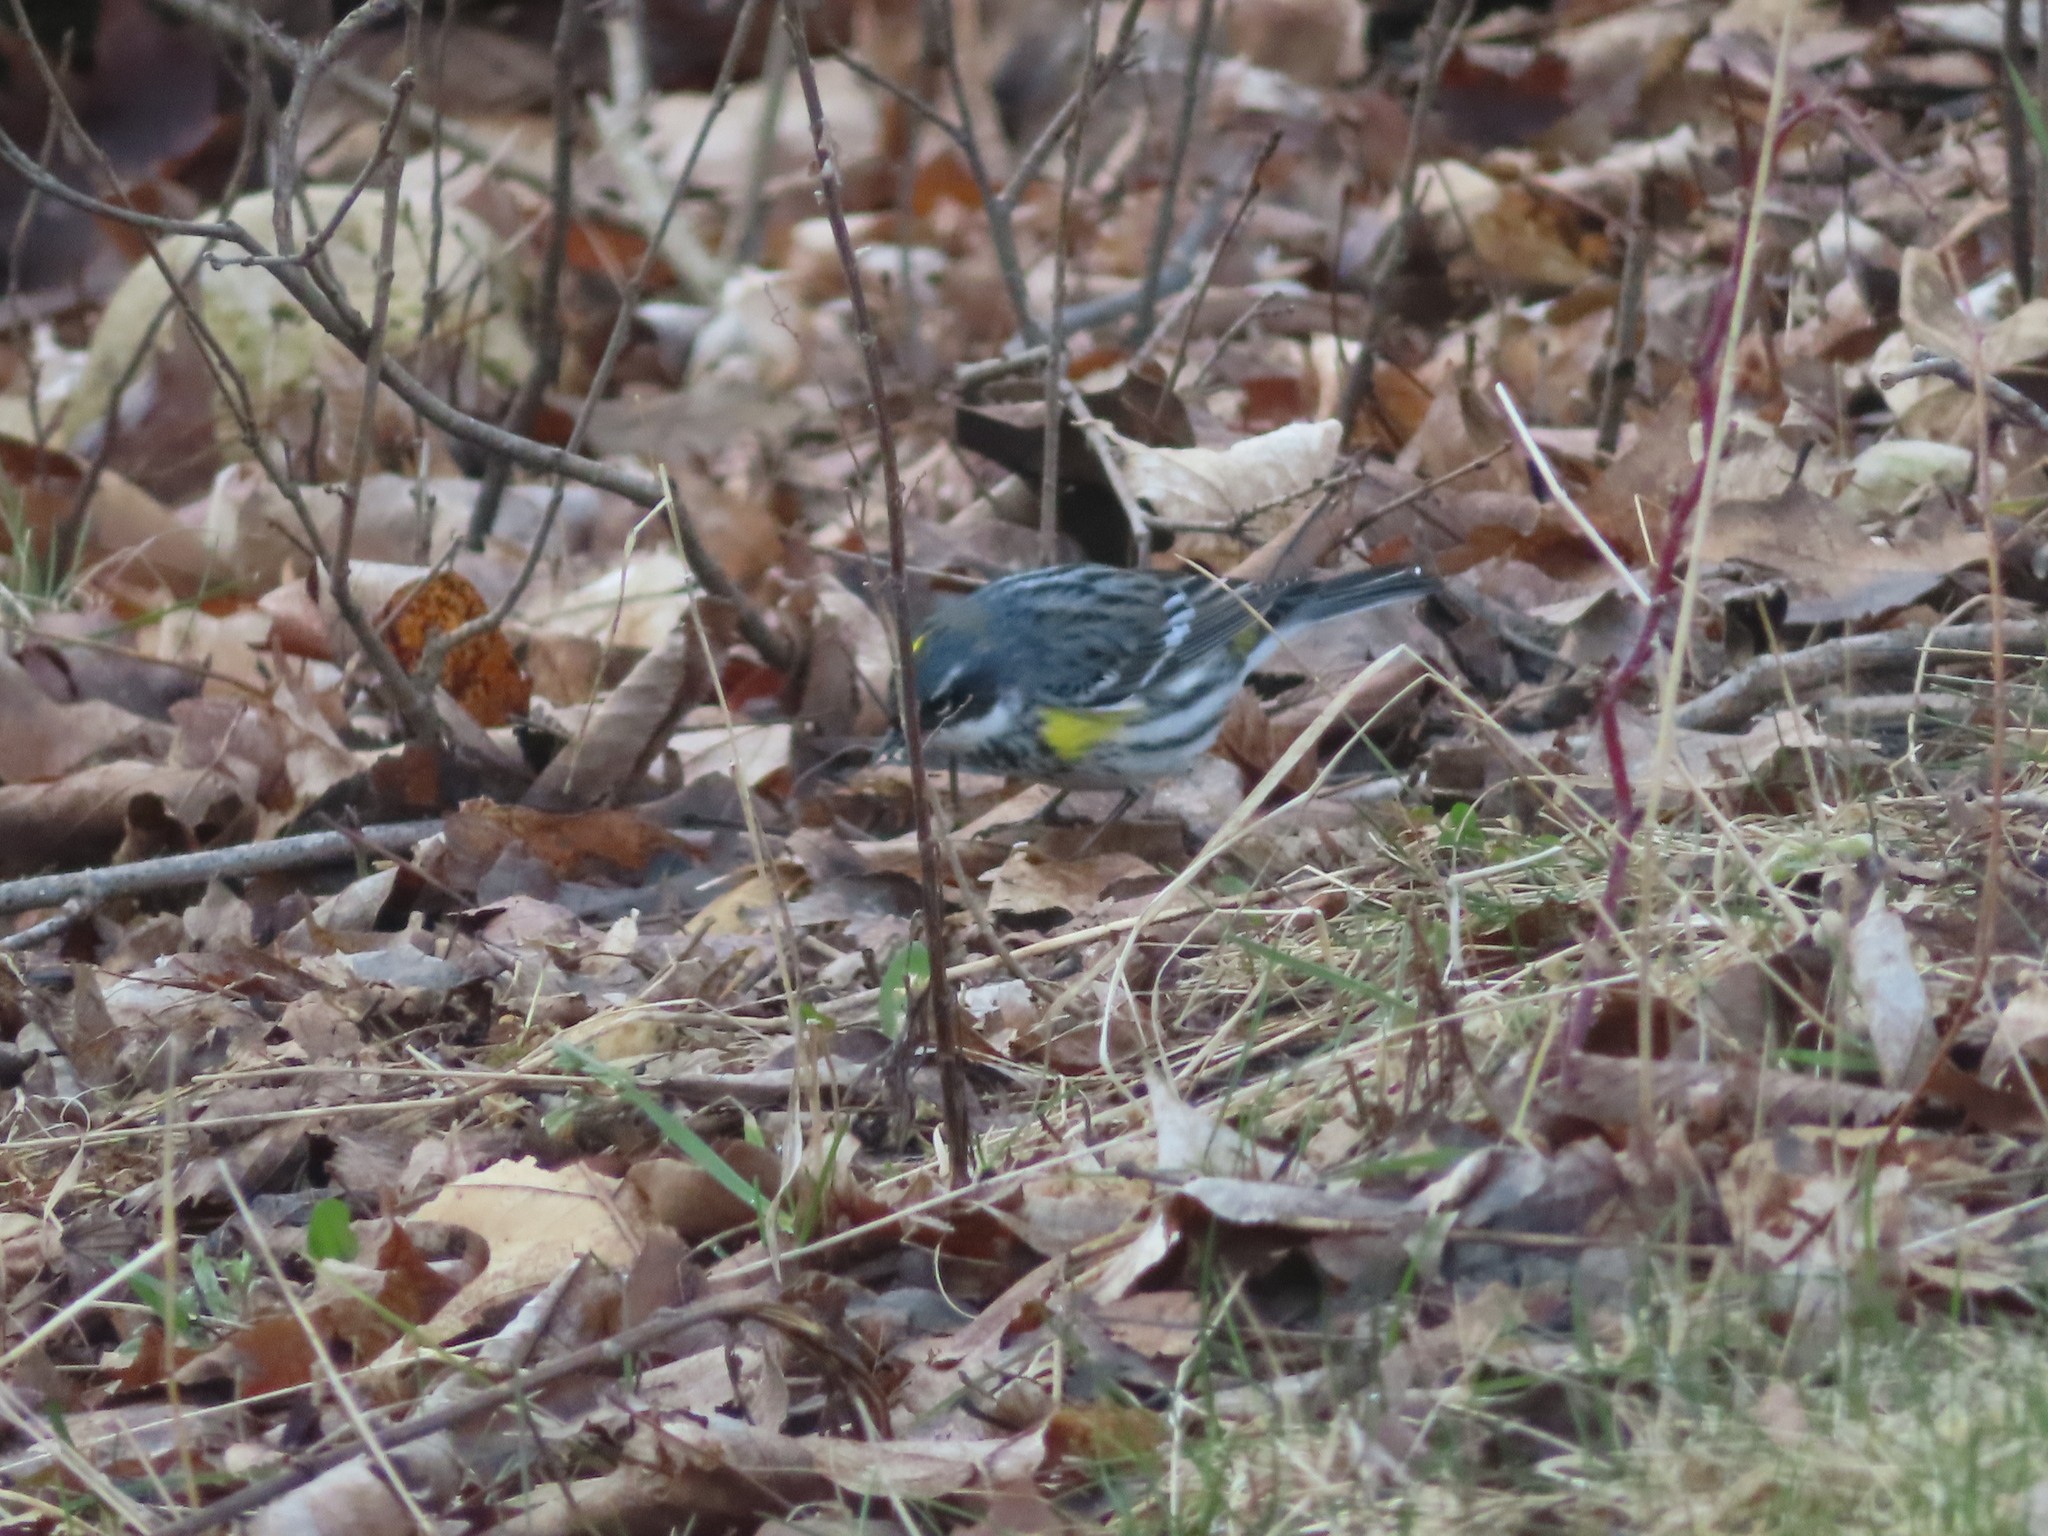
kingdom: Animalia
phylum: Chordata
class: Aves
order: Passeriformes
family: Parulidae
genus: Setophaga
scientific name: Setophaga coronata
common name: Myrtle warbler
